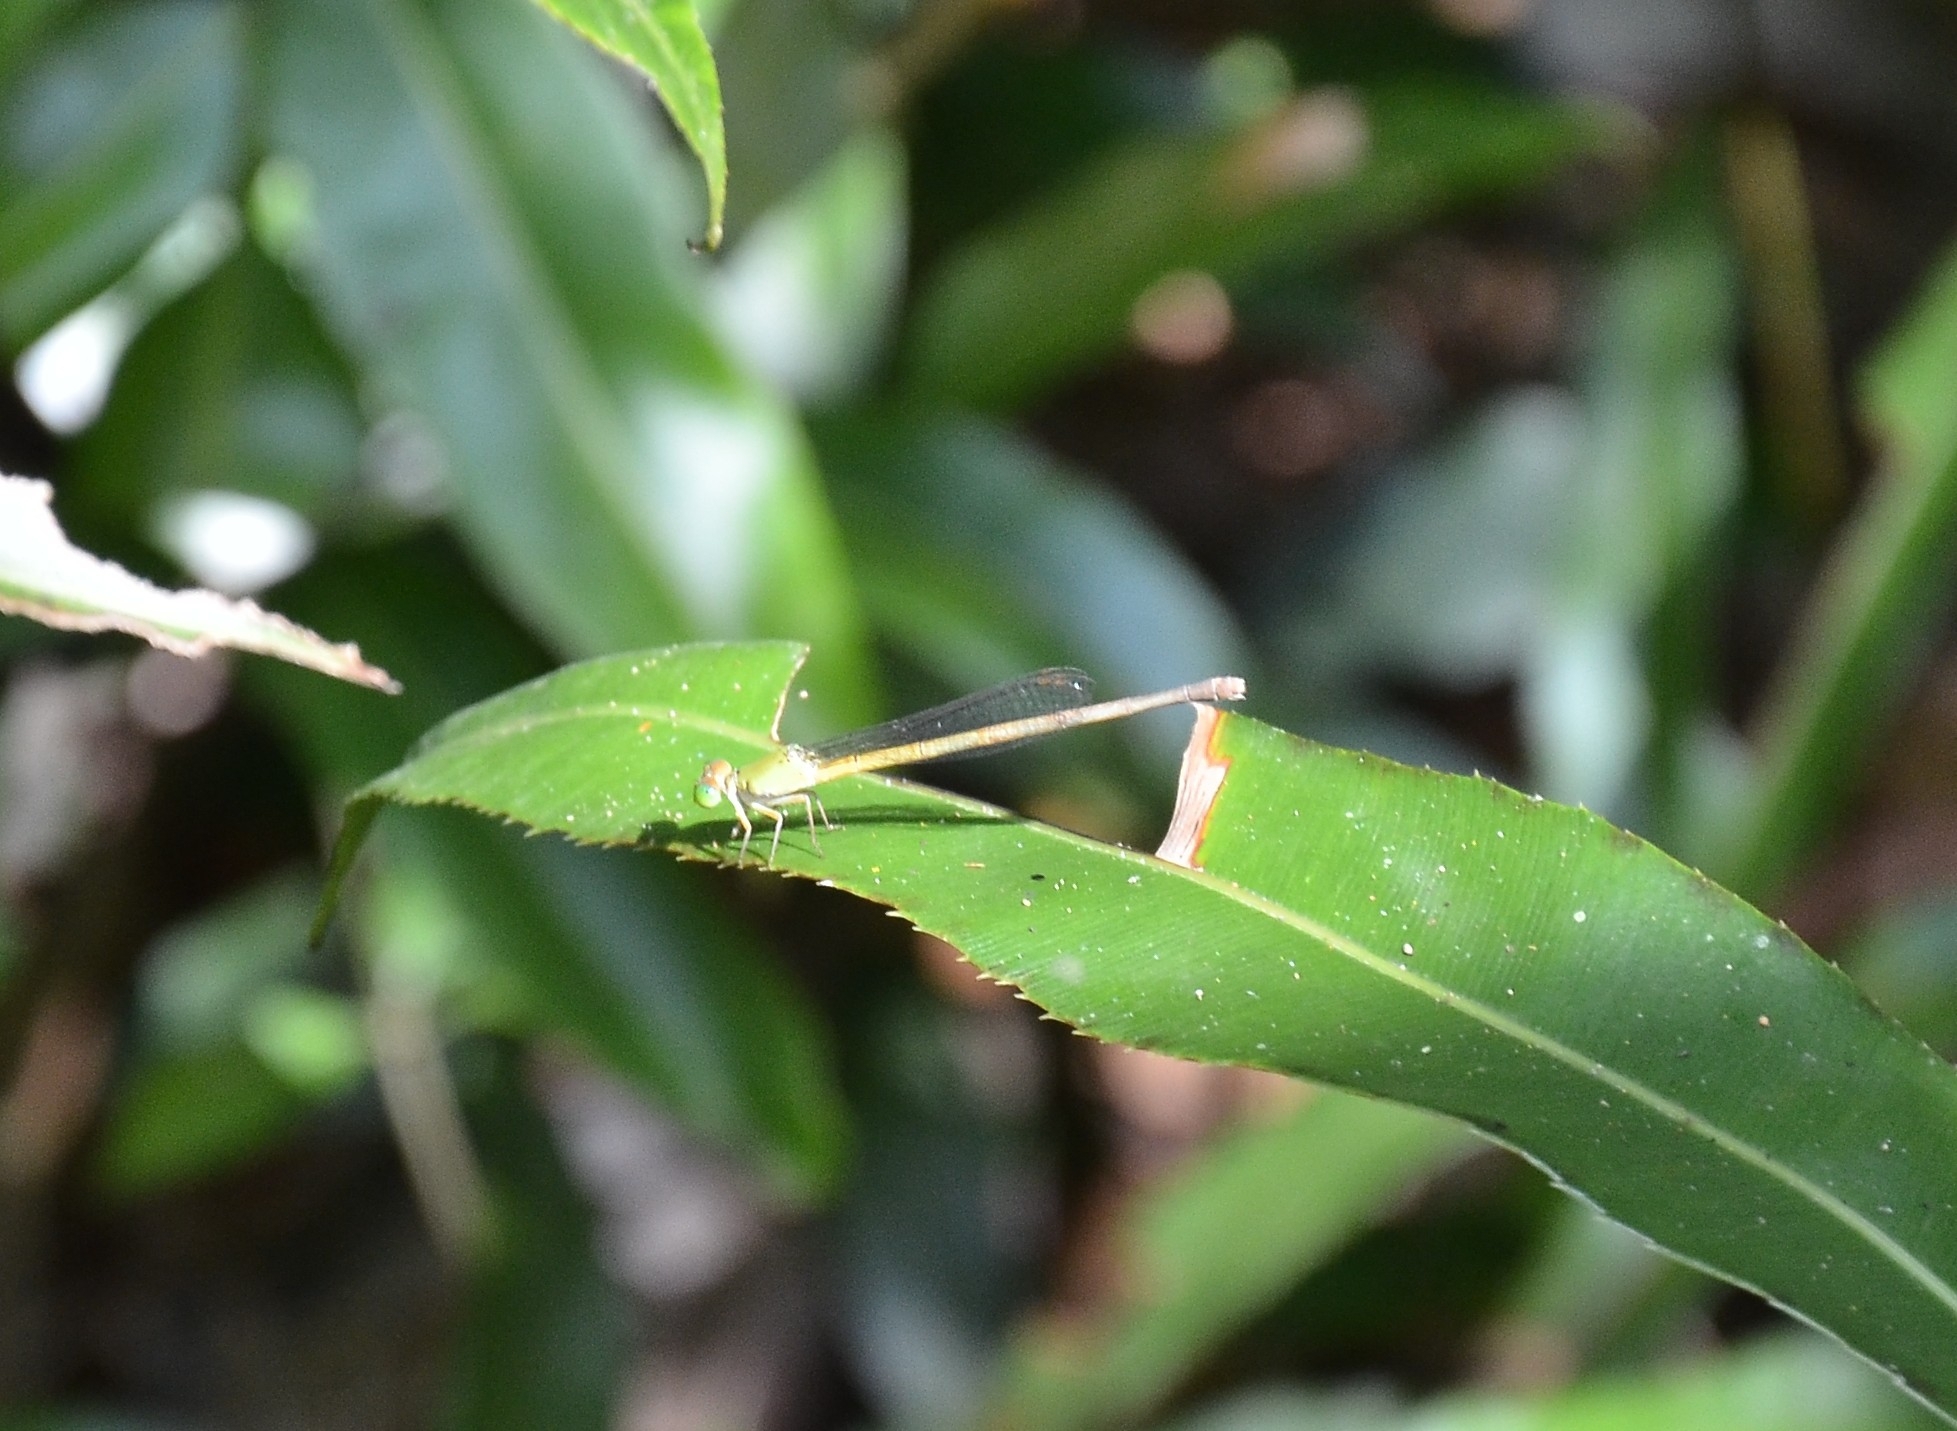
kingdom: Animalia
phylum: Arthropoda
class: Insecta
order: Odonata
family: Coenagrionidae
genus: Ceriagrion
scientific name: Ceriagrion coromandelianum
